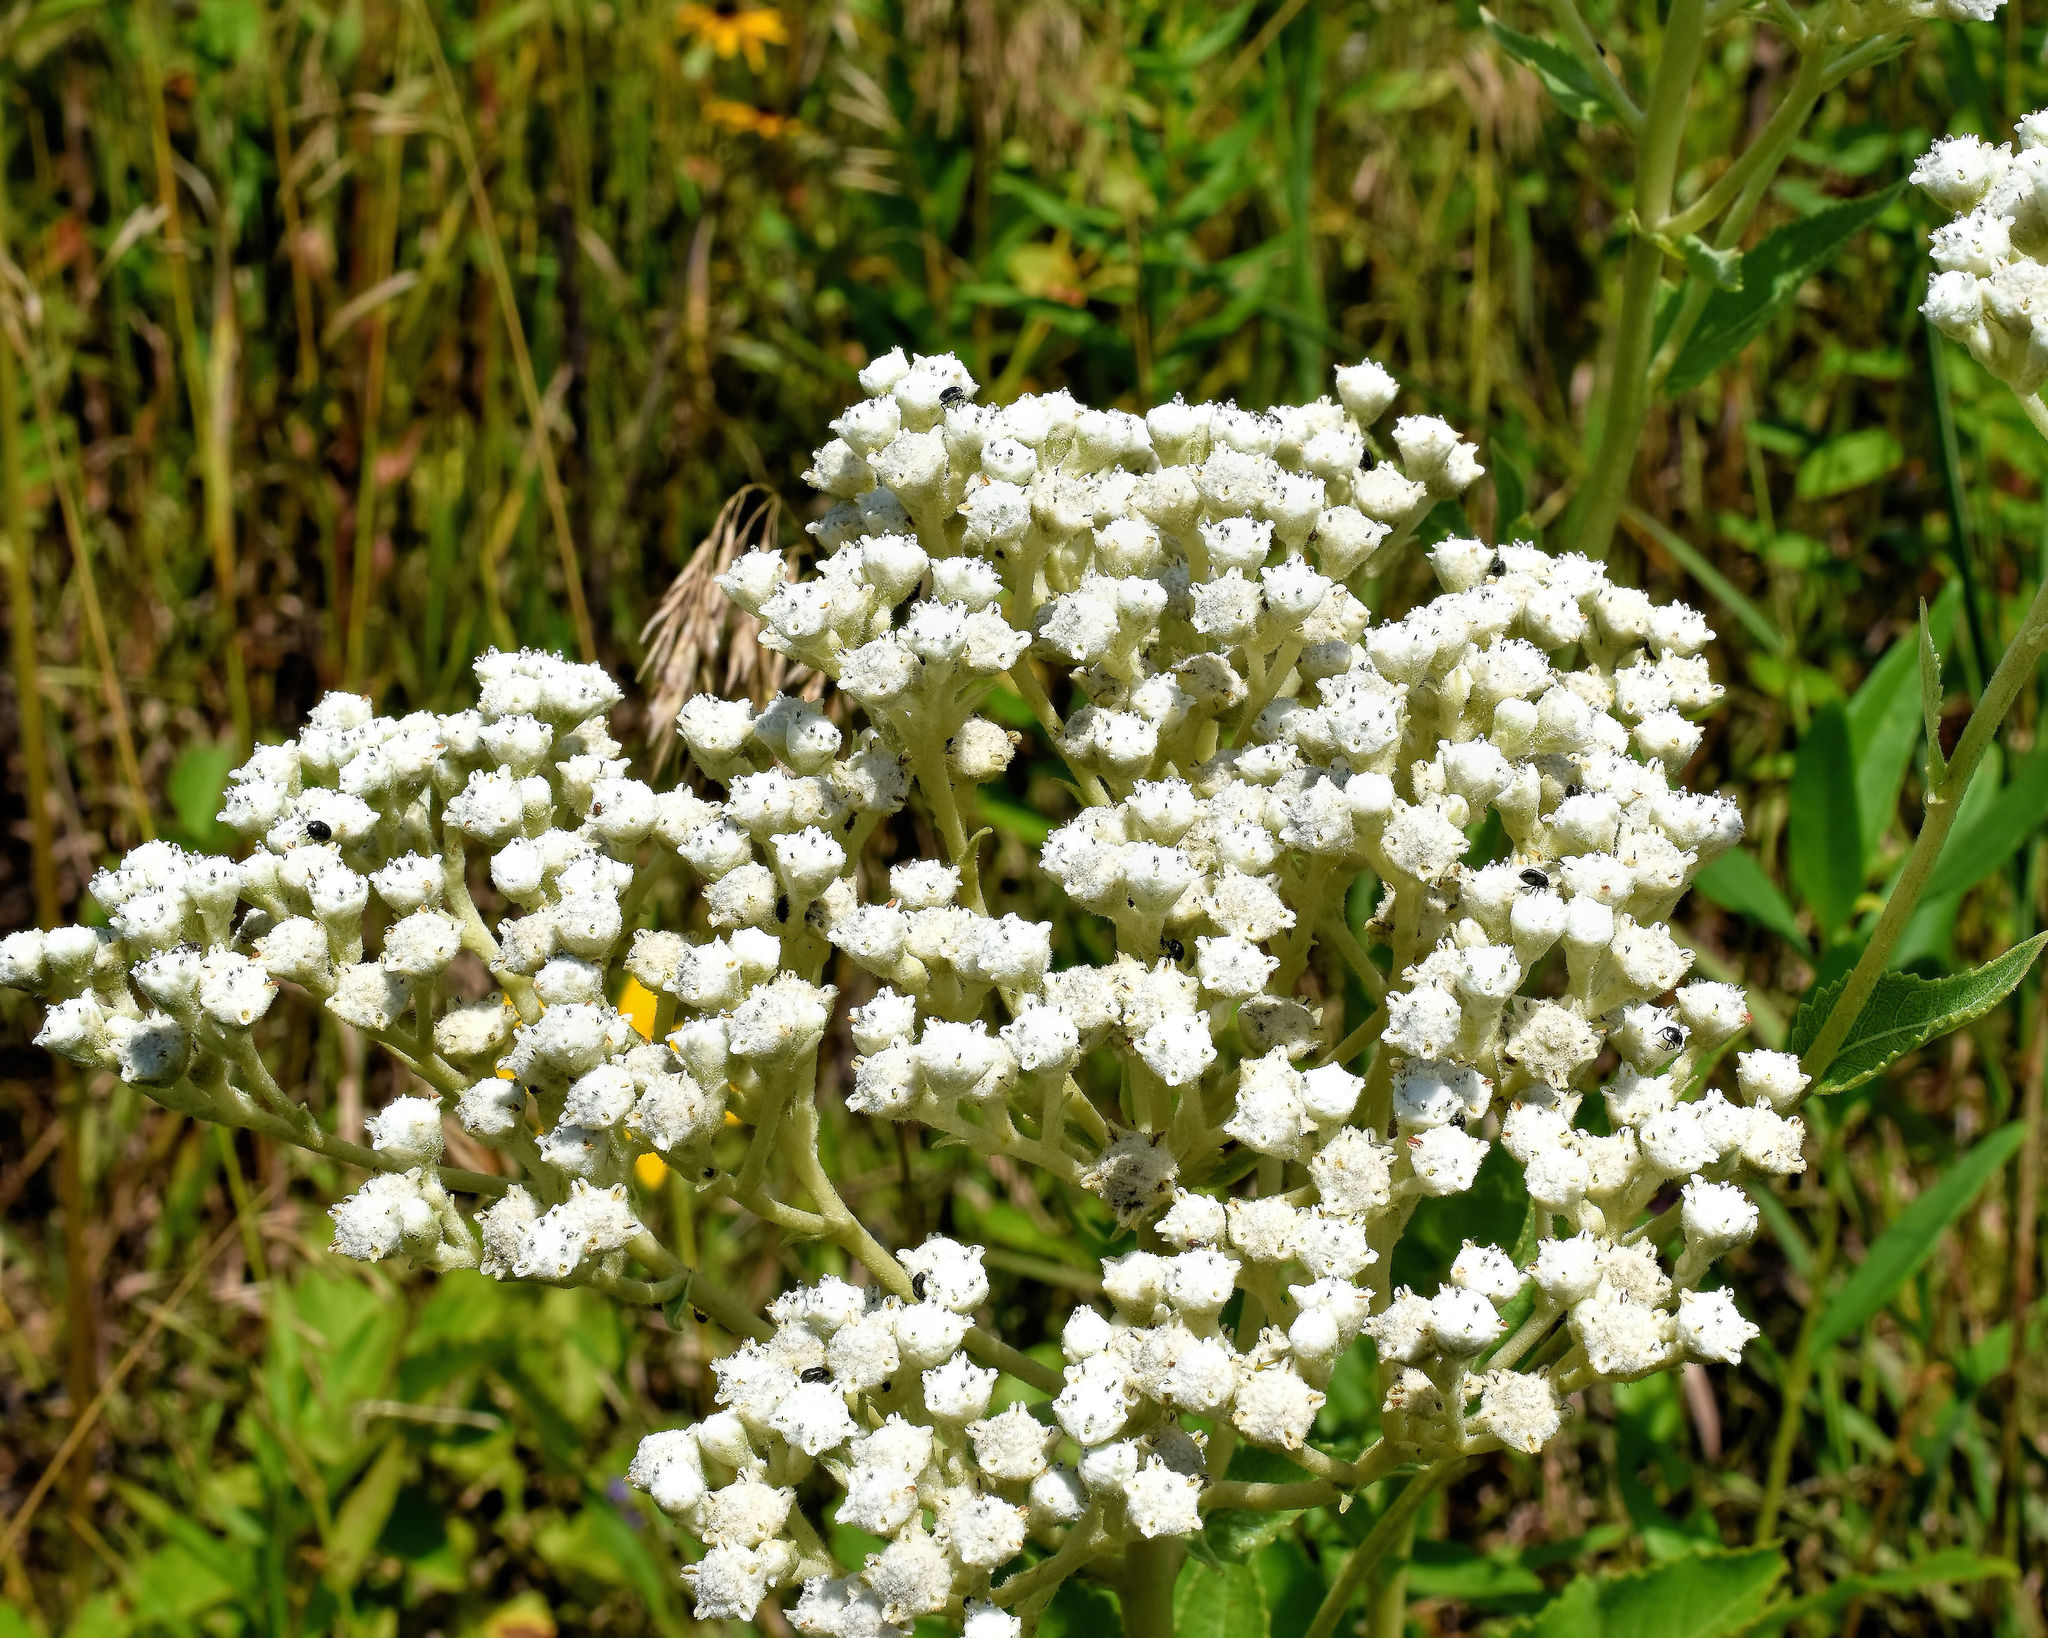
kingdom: Plantae
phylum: Tracheophyta
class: Magnoliopsida
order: Asterales
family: Asteraceae
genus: Parthenium
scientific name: Parthenium integrifolium
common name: American feverfew
